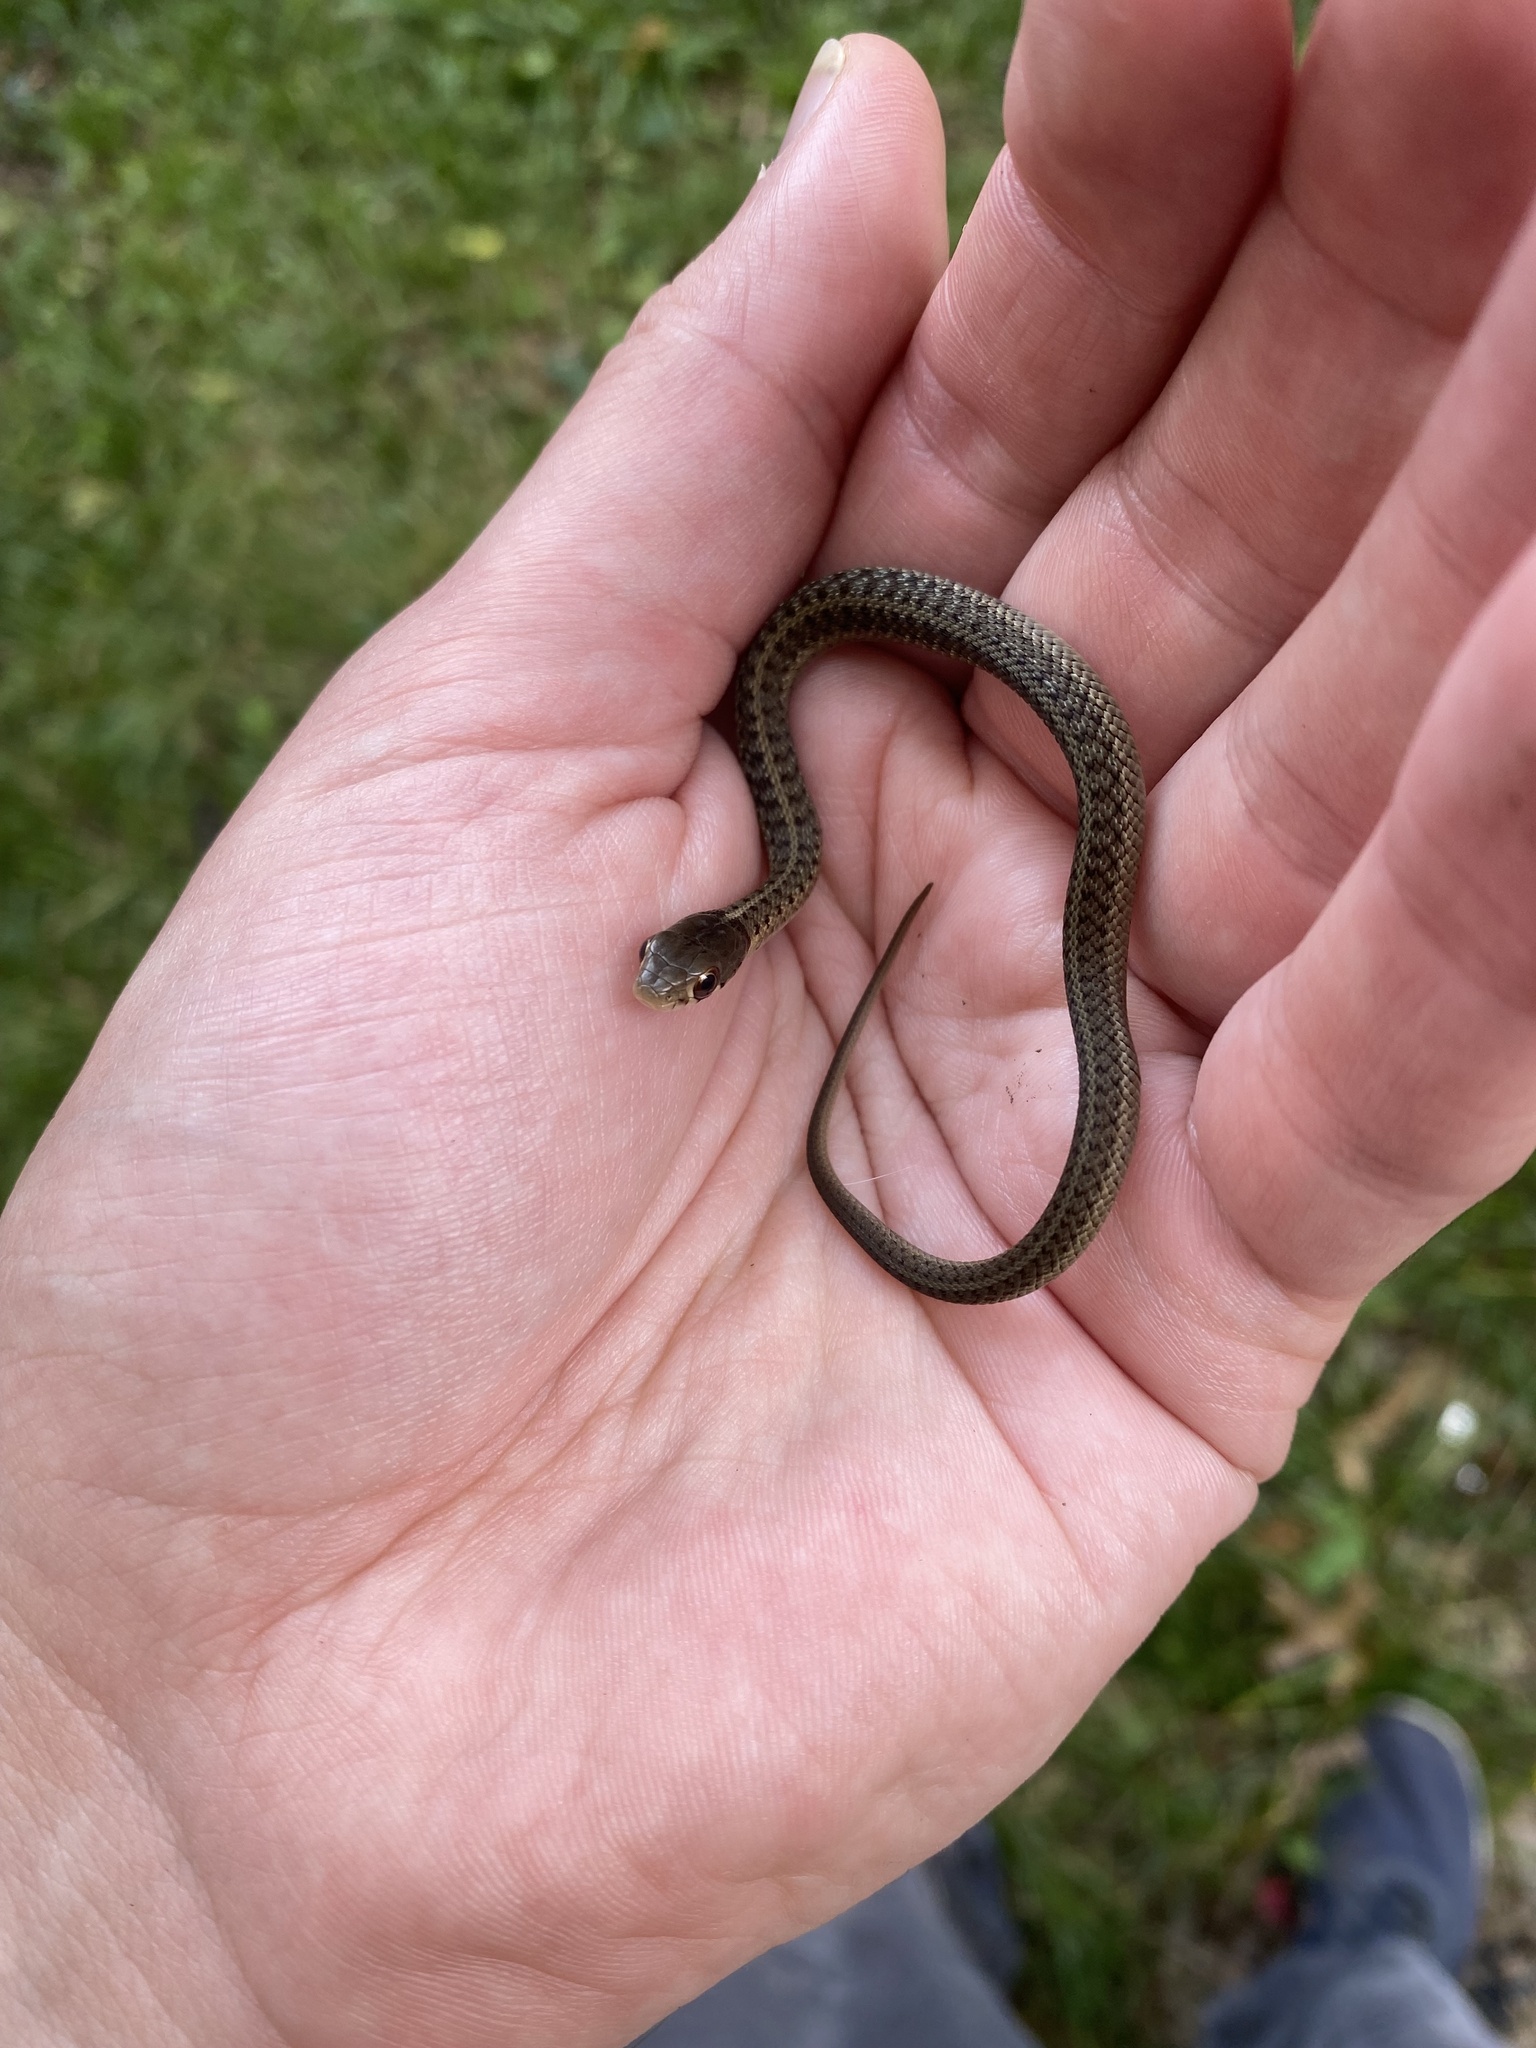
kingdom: Animalia
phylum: Chordata
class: Squamata
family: Colubridae
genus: Thamnophis
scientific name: Thamnophis sirtalis
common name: Common garter snake
